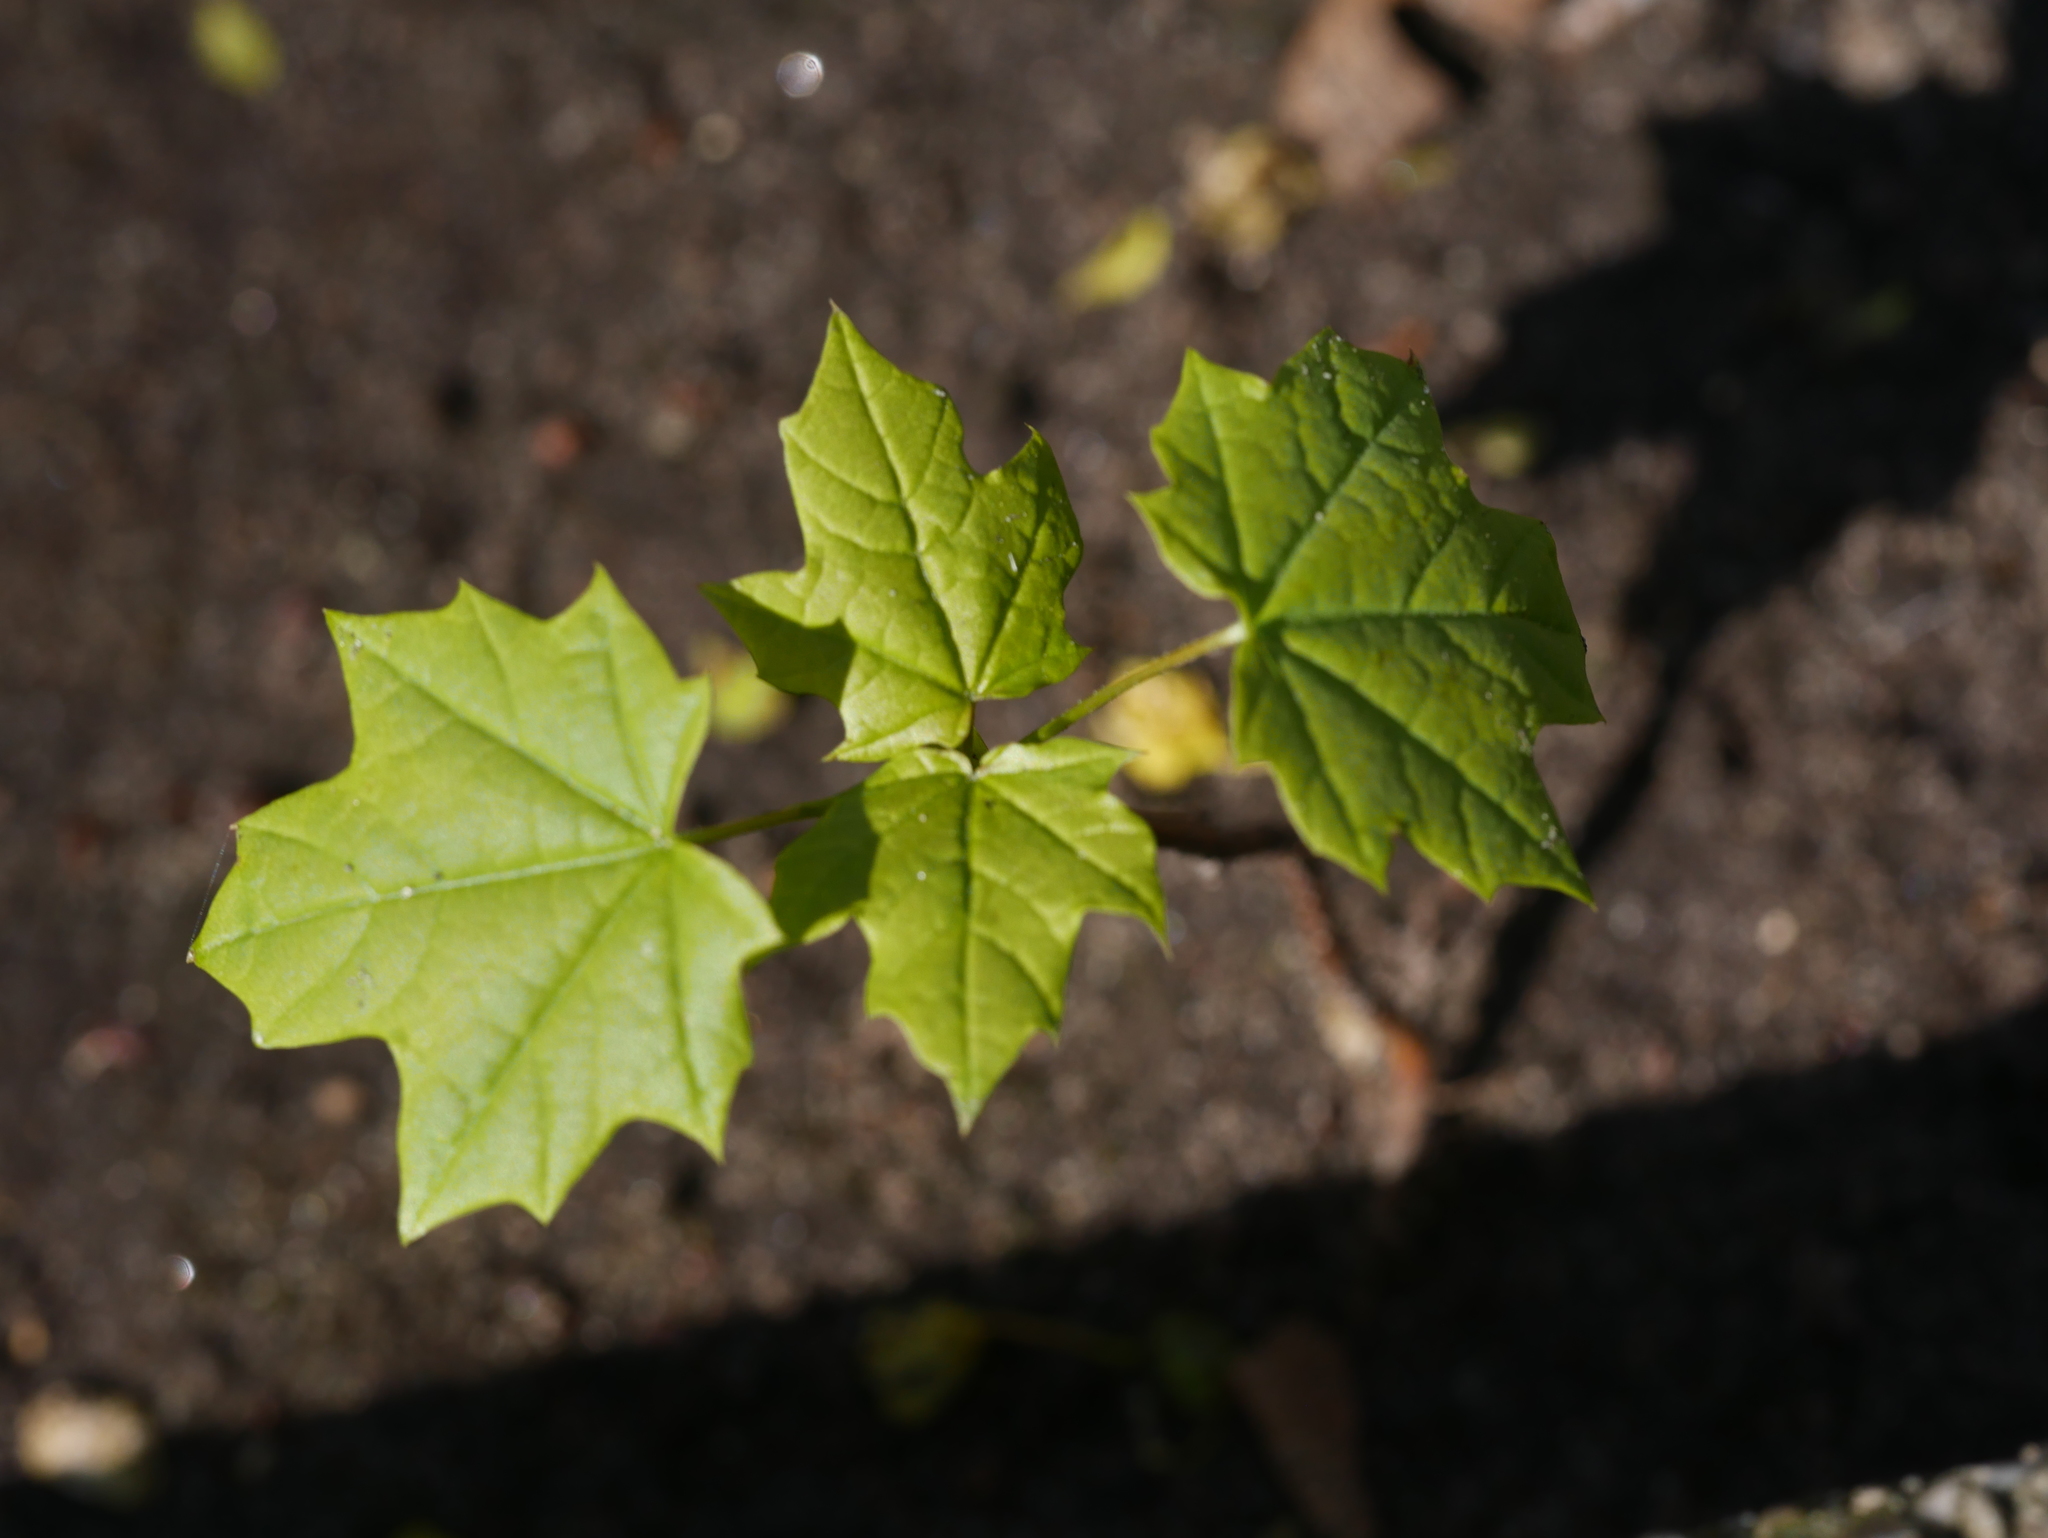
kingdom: Plantae
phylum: Tracheophyta
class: Magnoliopsida
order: Sapindales
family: Sapindaceae
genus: Acer
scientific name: Acer platanoides
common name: Norway maple
